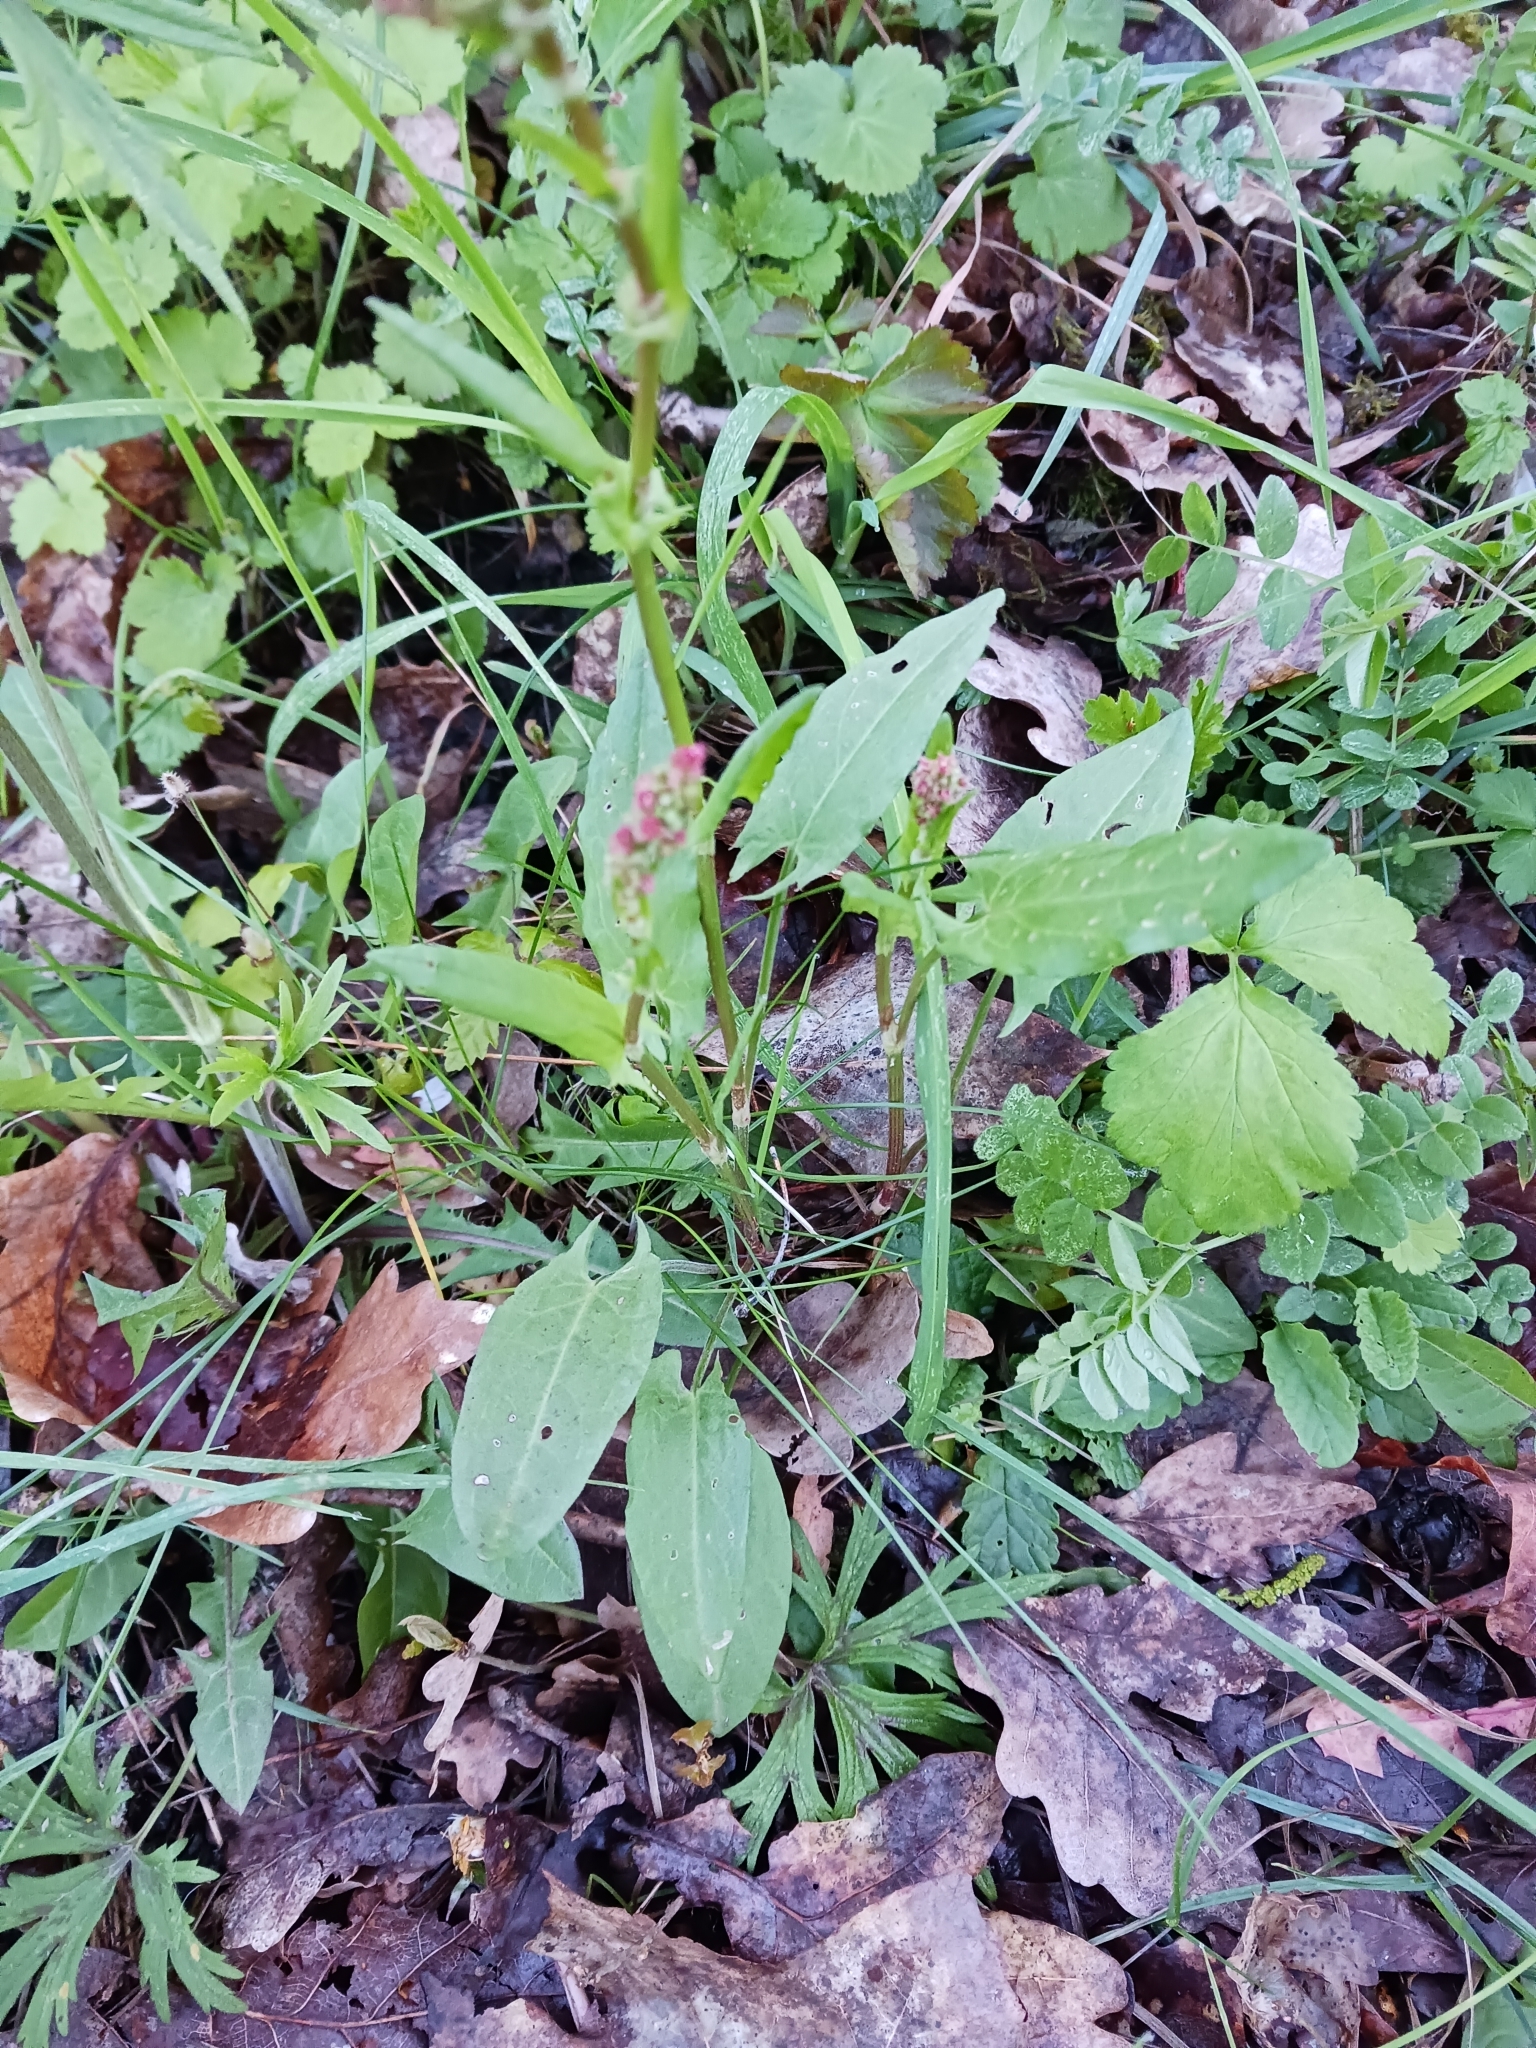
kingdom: Plantae
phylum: Tracheophyta
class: Magnoliopsida
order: Caryophyllales
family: Polygonaceae
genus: Rumex
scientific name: Rumex acetosa
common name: Garden sorrel
